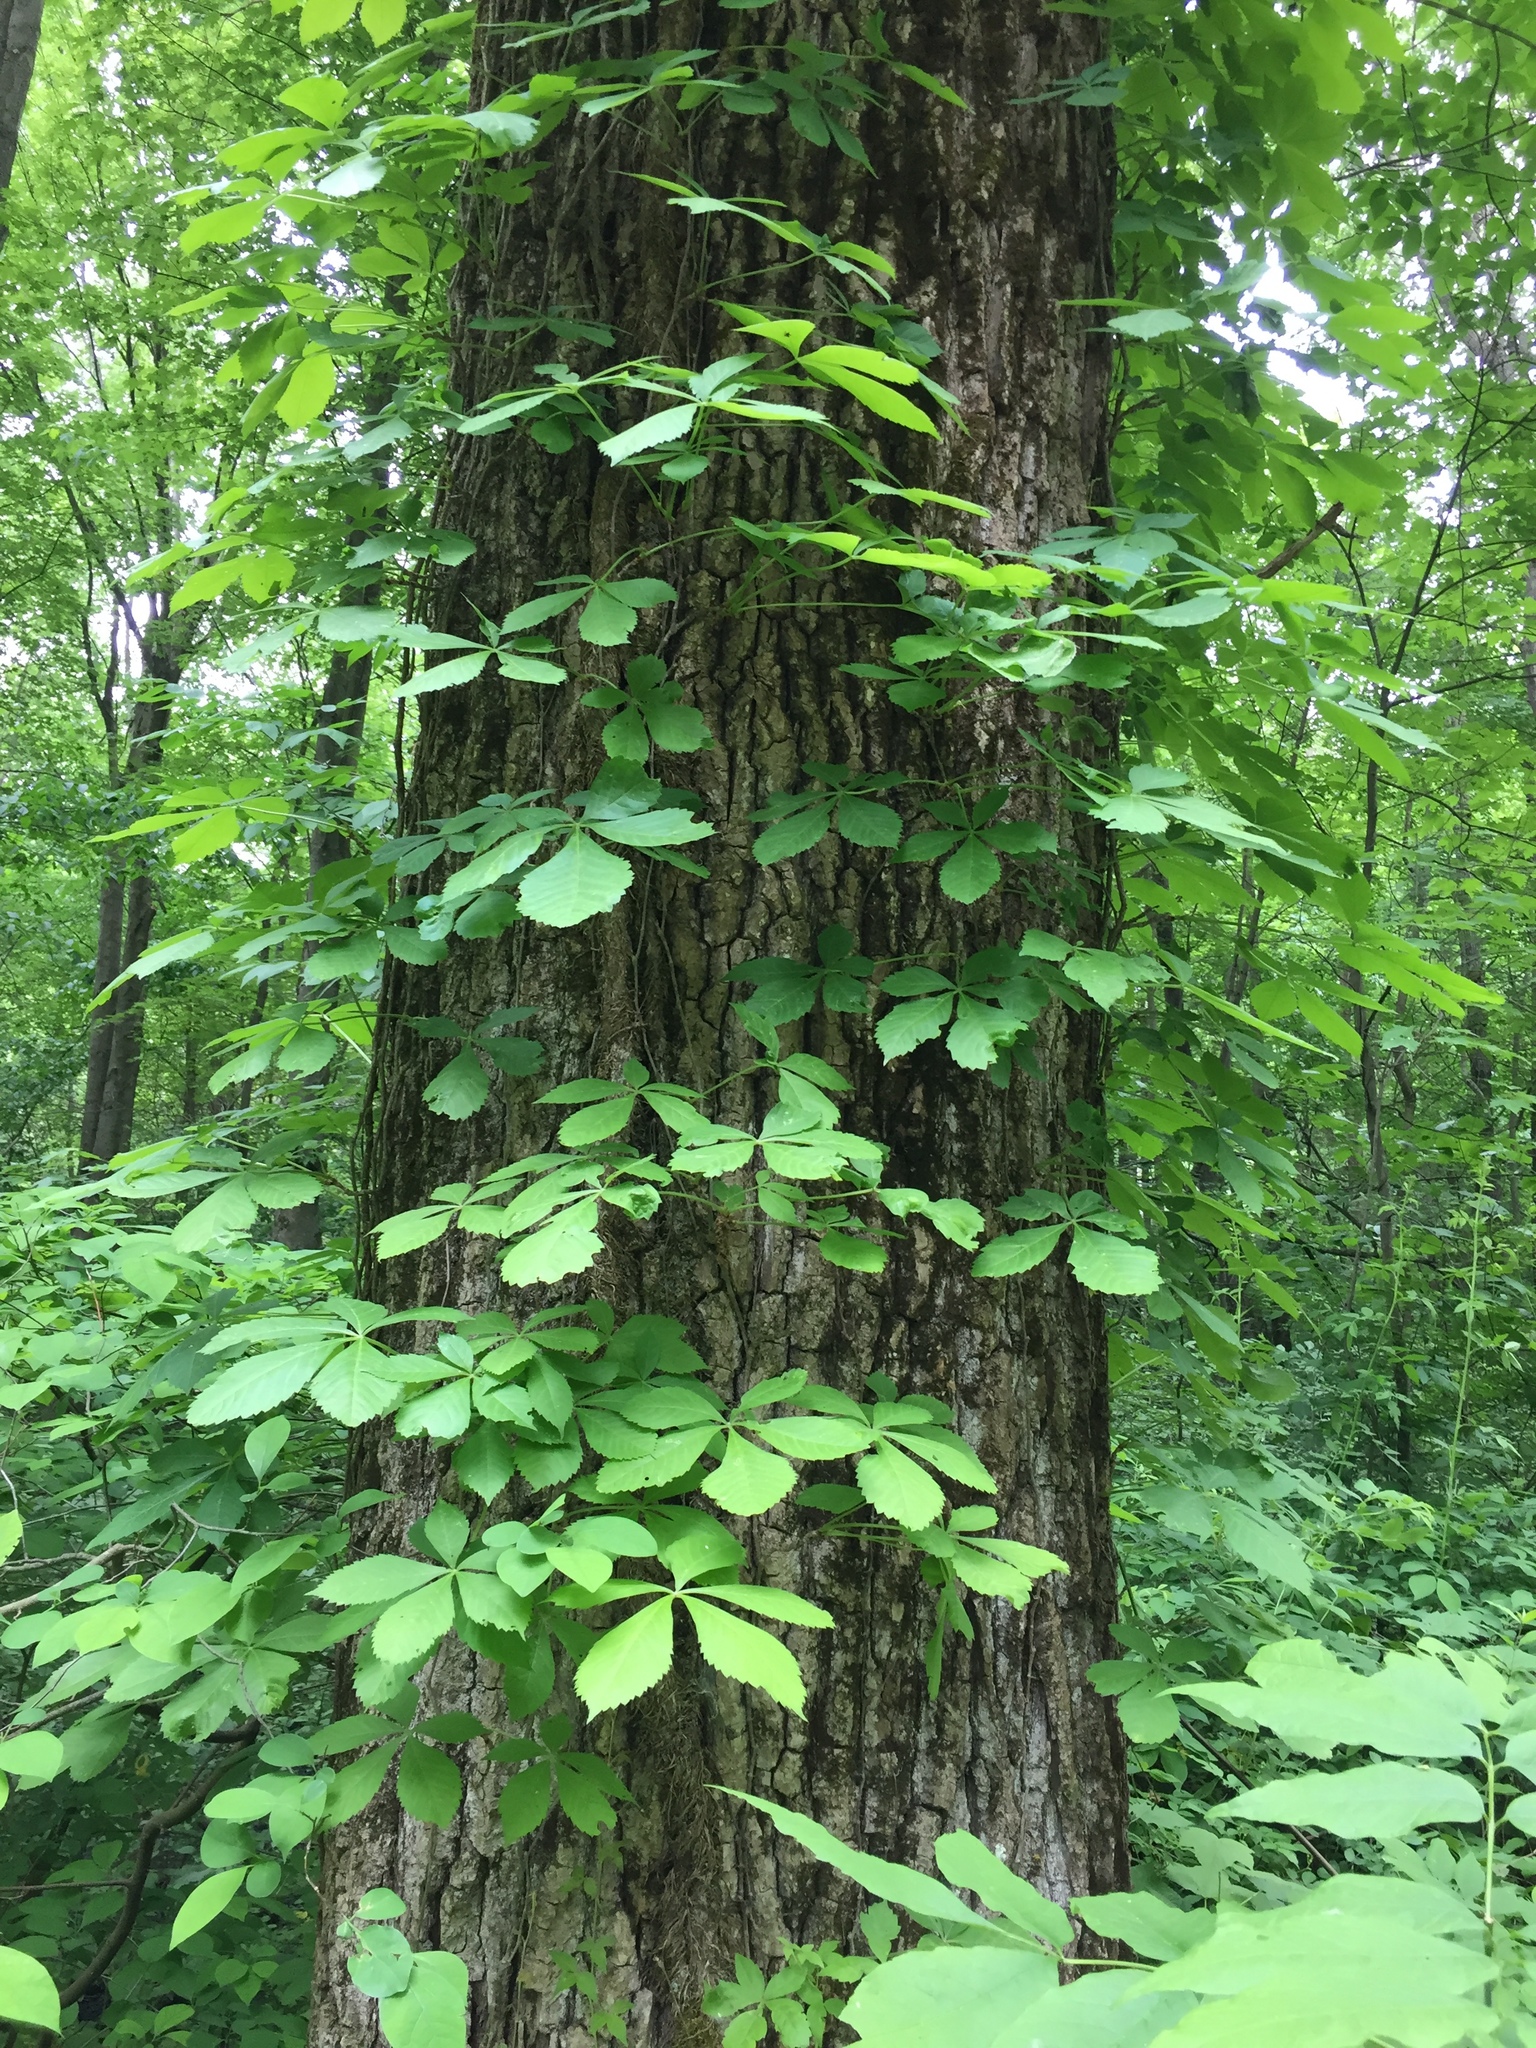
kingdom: Plantae
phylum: Tracheophyta
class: Magnoliopsida
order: Vitales
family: Vitaceae
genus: Parthenocissus
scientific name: Parthenocissus quinquefolia
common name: Virginia-creeper
